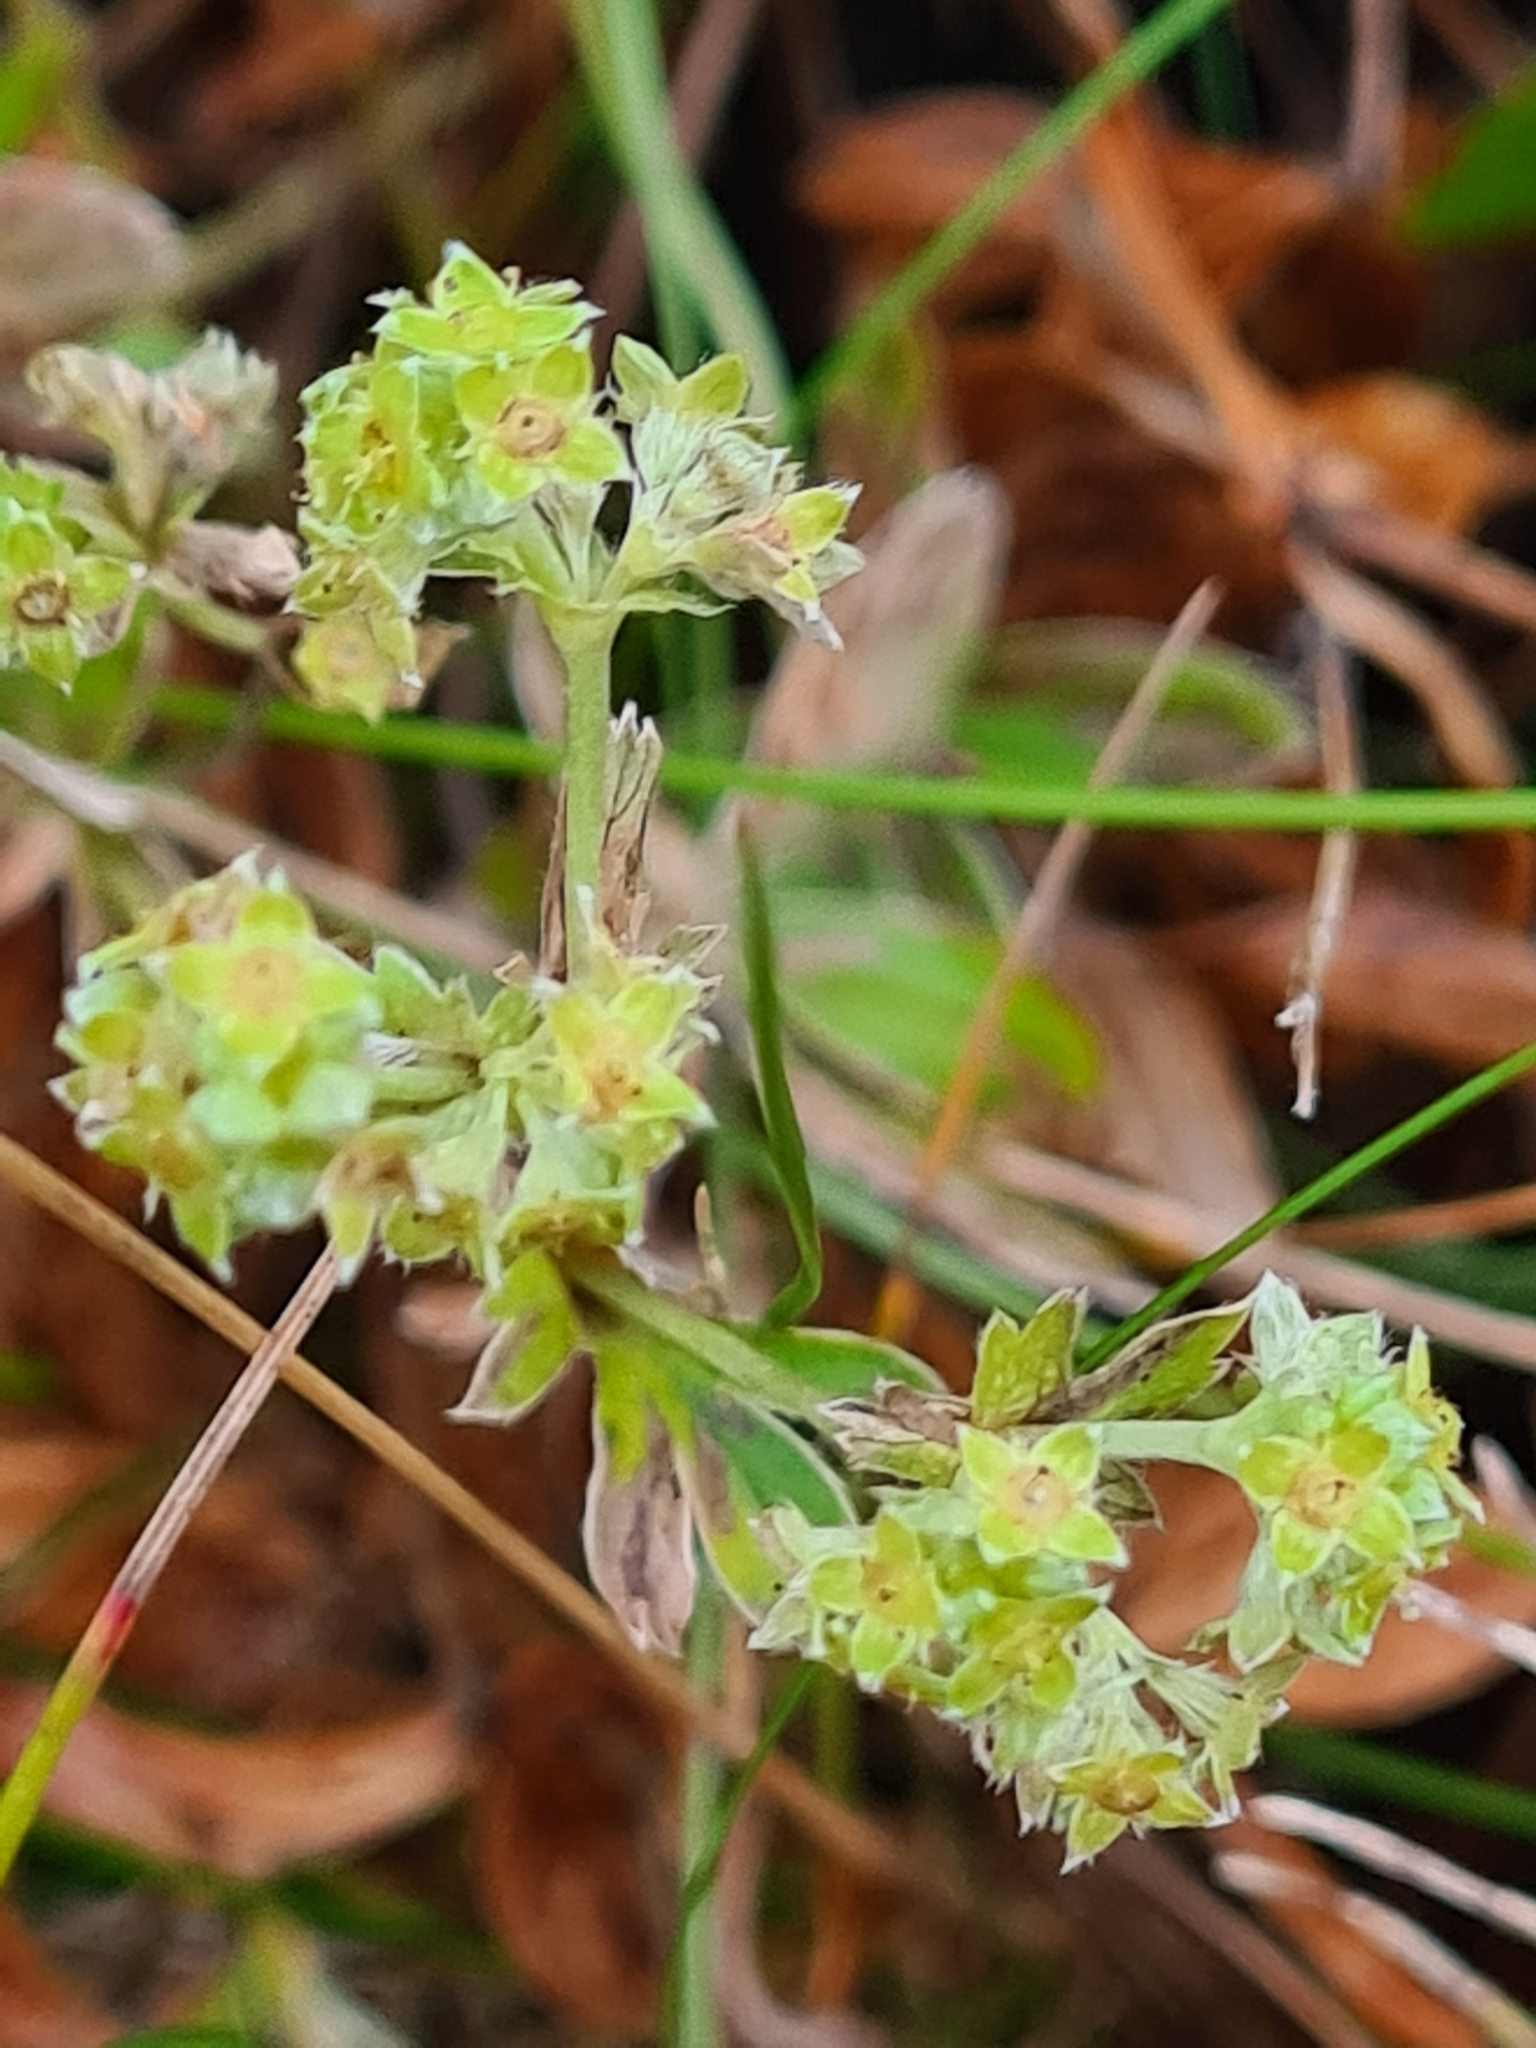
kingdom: Plantae
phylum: Tracheophyta
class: Magnoliopsida
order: Rosales
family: Rosaceae
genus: Alchemilla
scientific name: Alchemilla alpina
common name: Alpine lady's-mantle
